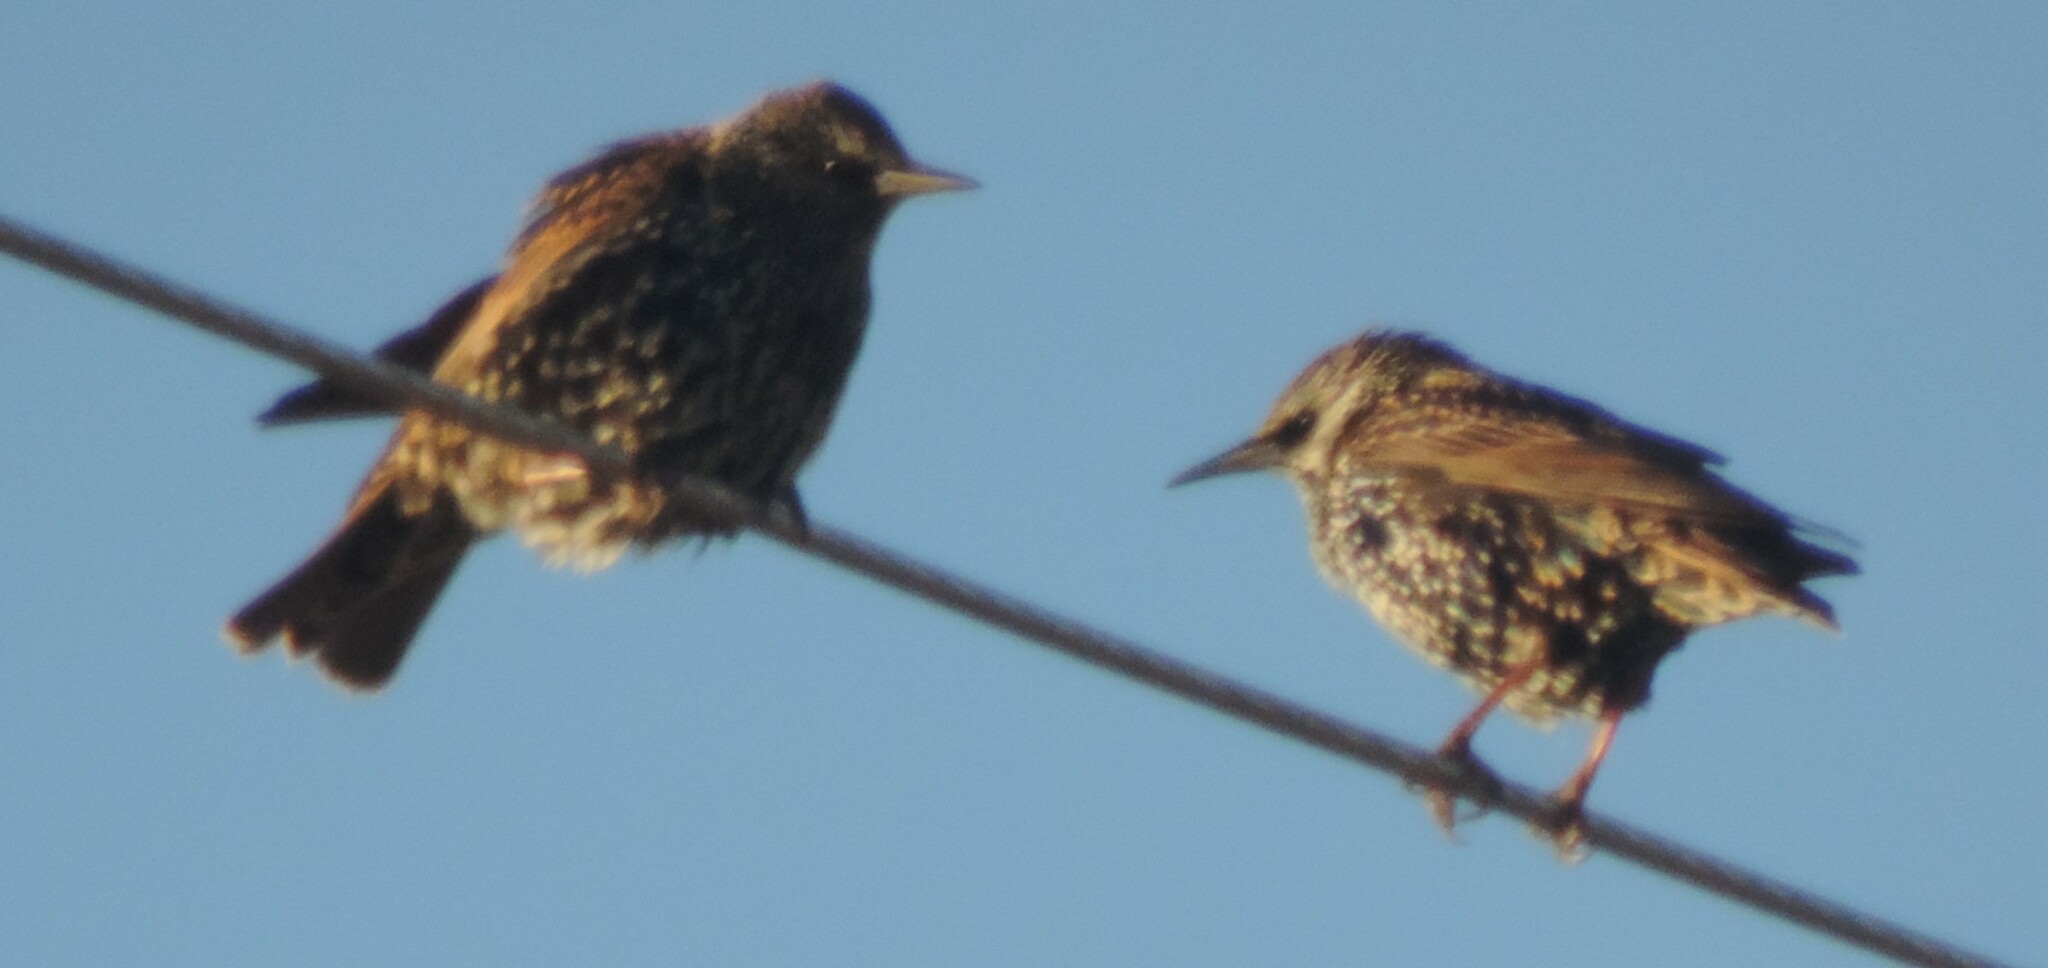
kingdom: Animalia
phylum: Chordata
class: Aves
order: Passeriformes
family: Sturnidae
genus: Sturnus
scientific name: Sturnus vulgaris
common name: Common starling
